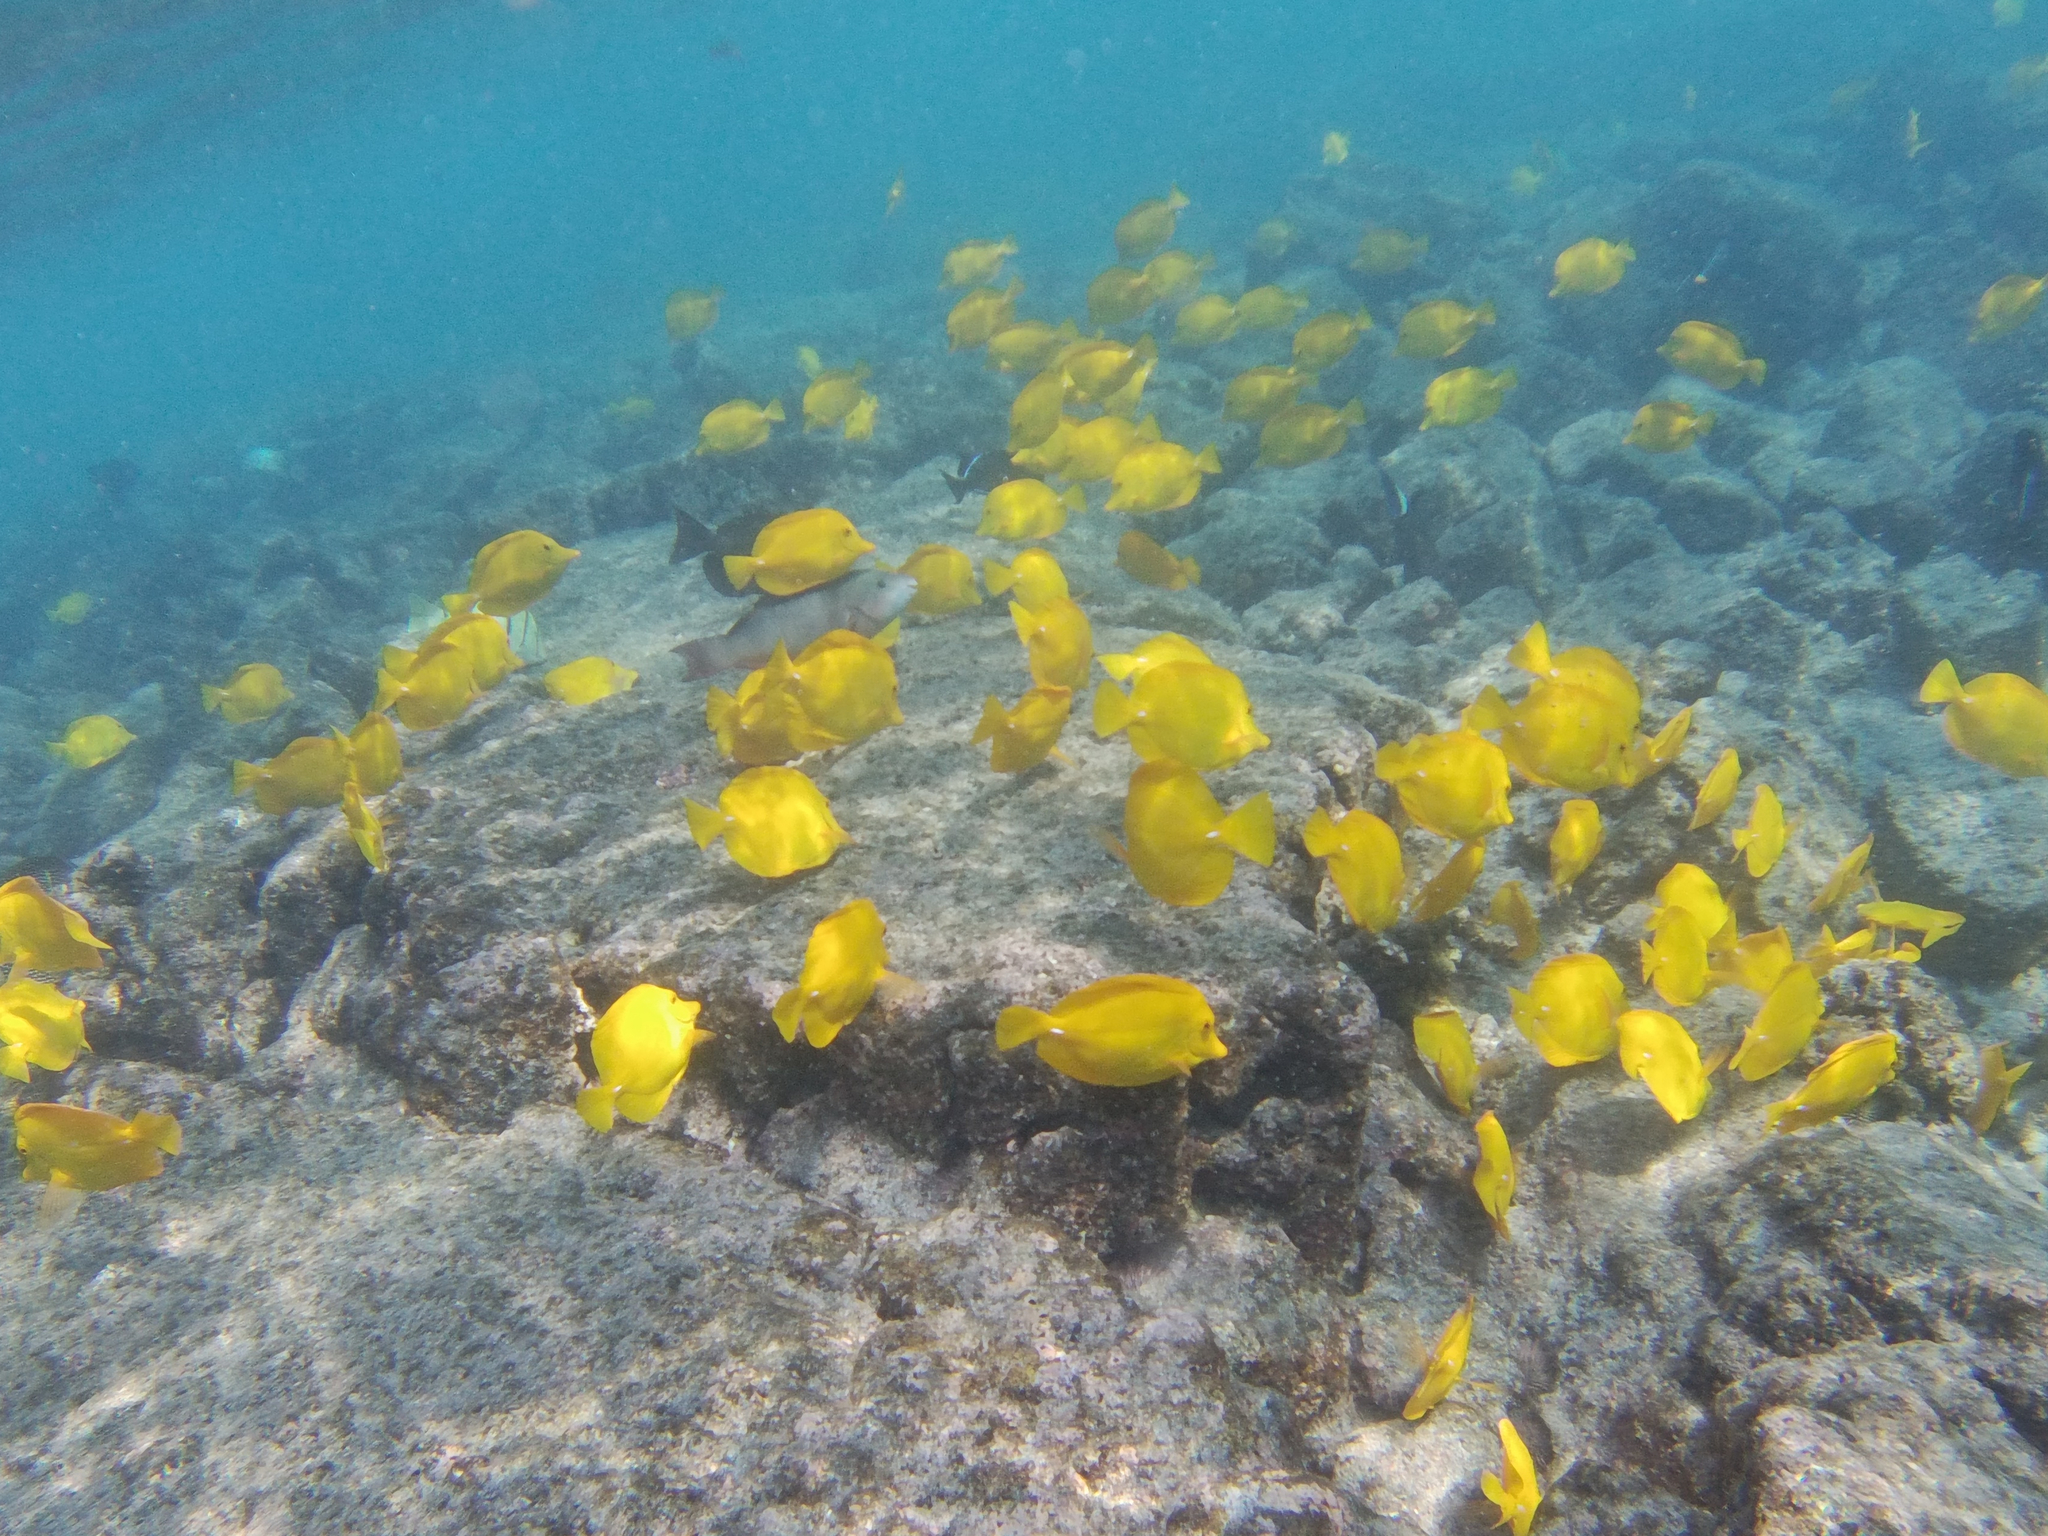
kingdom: Animalia
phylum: Chordata
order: Perciformes
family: Acanthuridae
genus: Zebrasoma
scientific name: Zebrasoma flavescens
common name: Yellow tang
